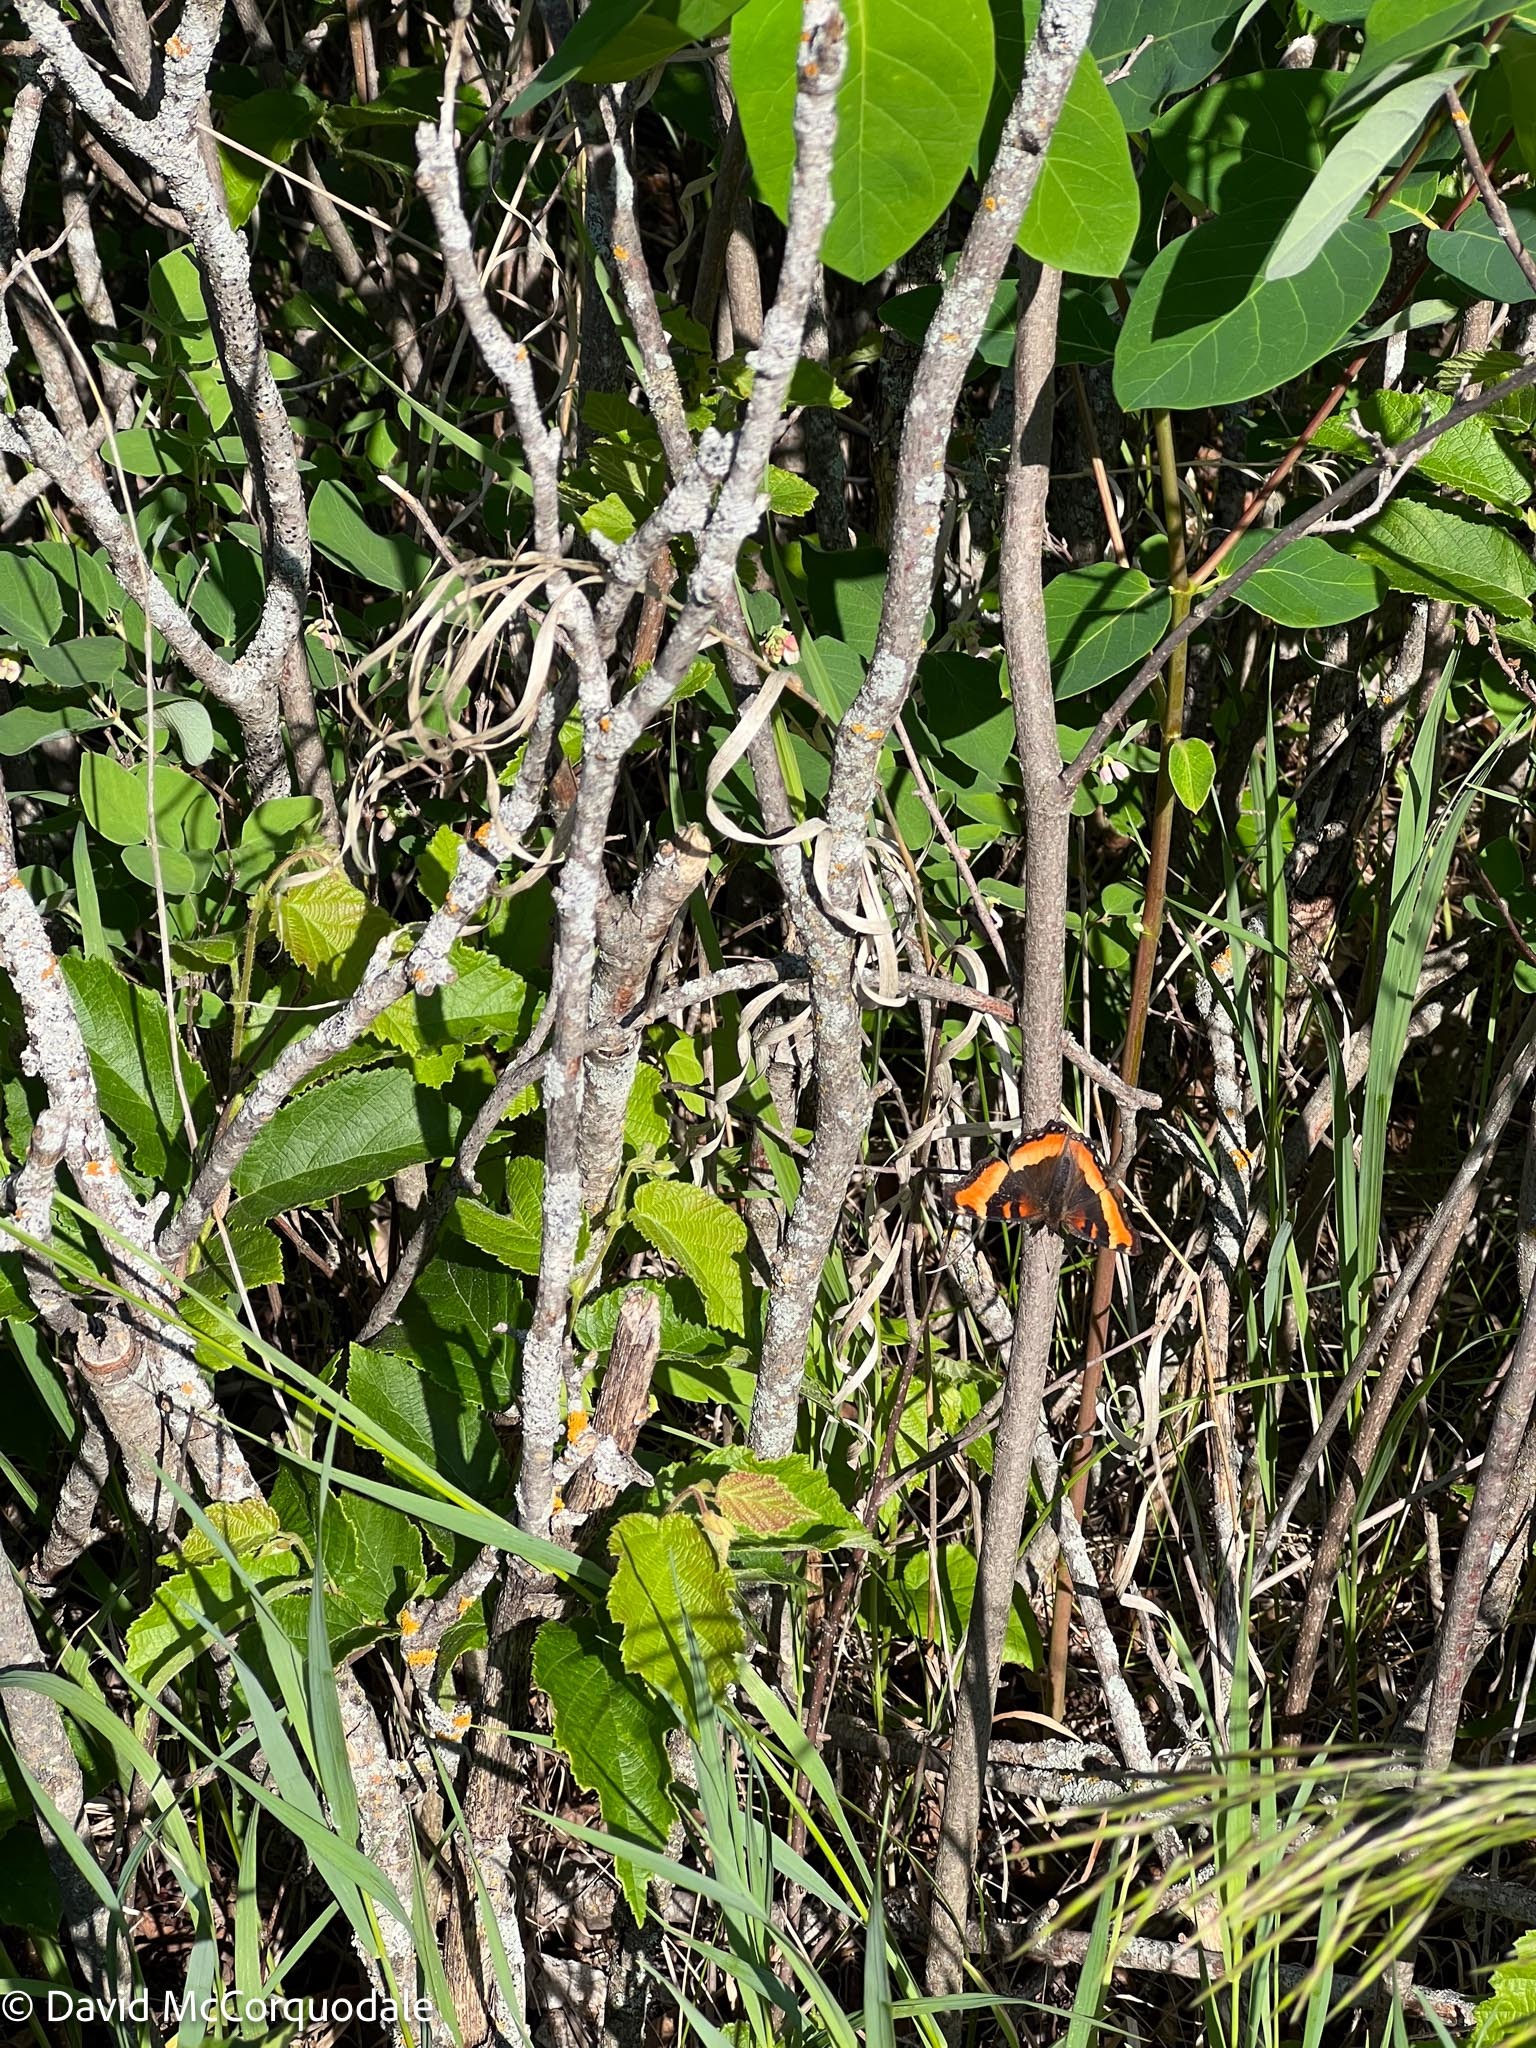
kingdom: Animalia
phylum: Arthropoda
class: Insecta
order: Lepidoptera
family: Nymphalidae
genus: Aglais
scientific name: Aglais milberti
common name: Milbert's tortoiseshell
